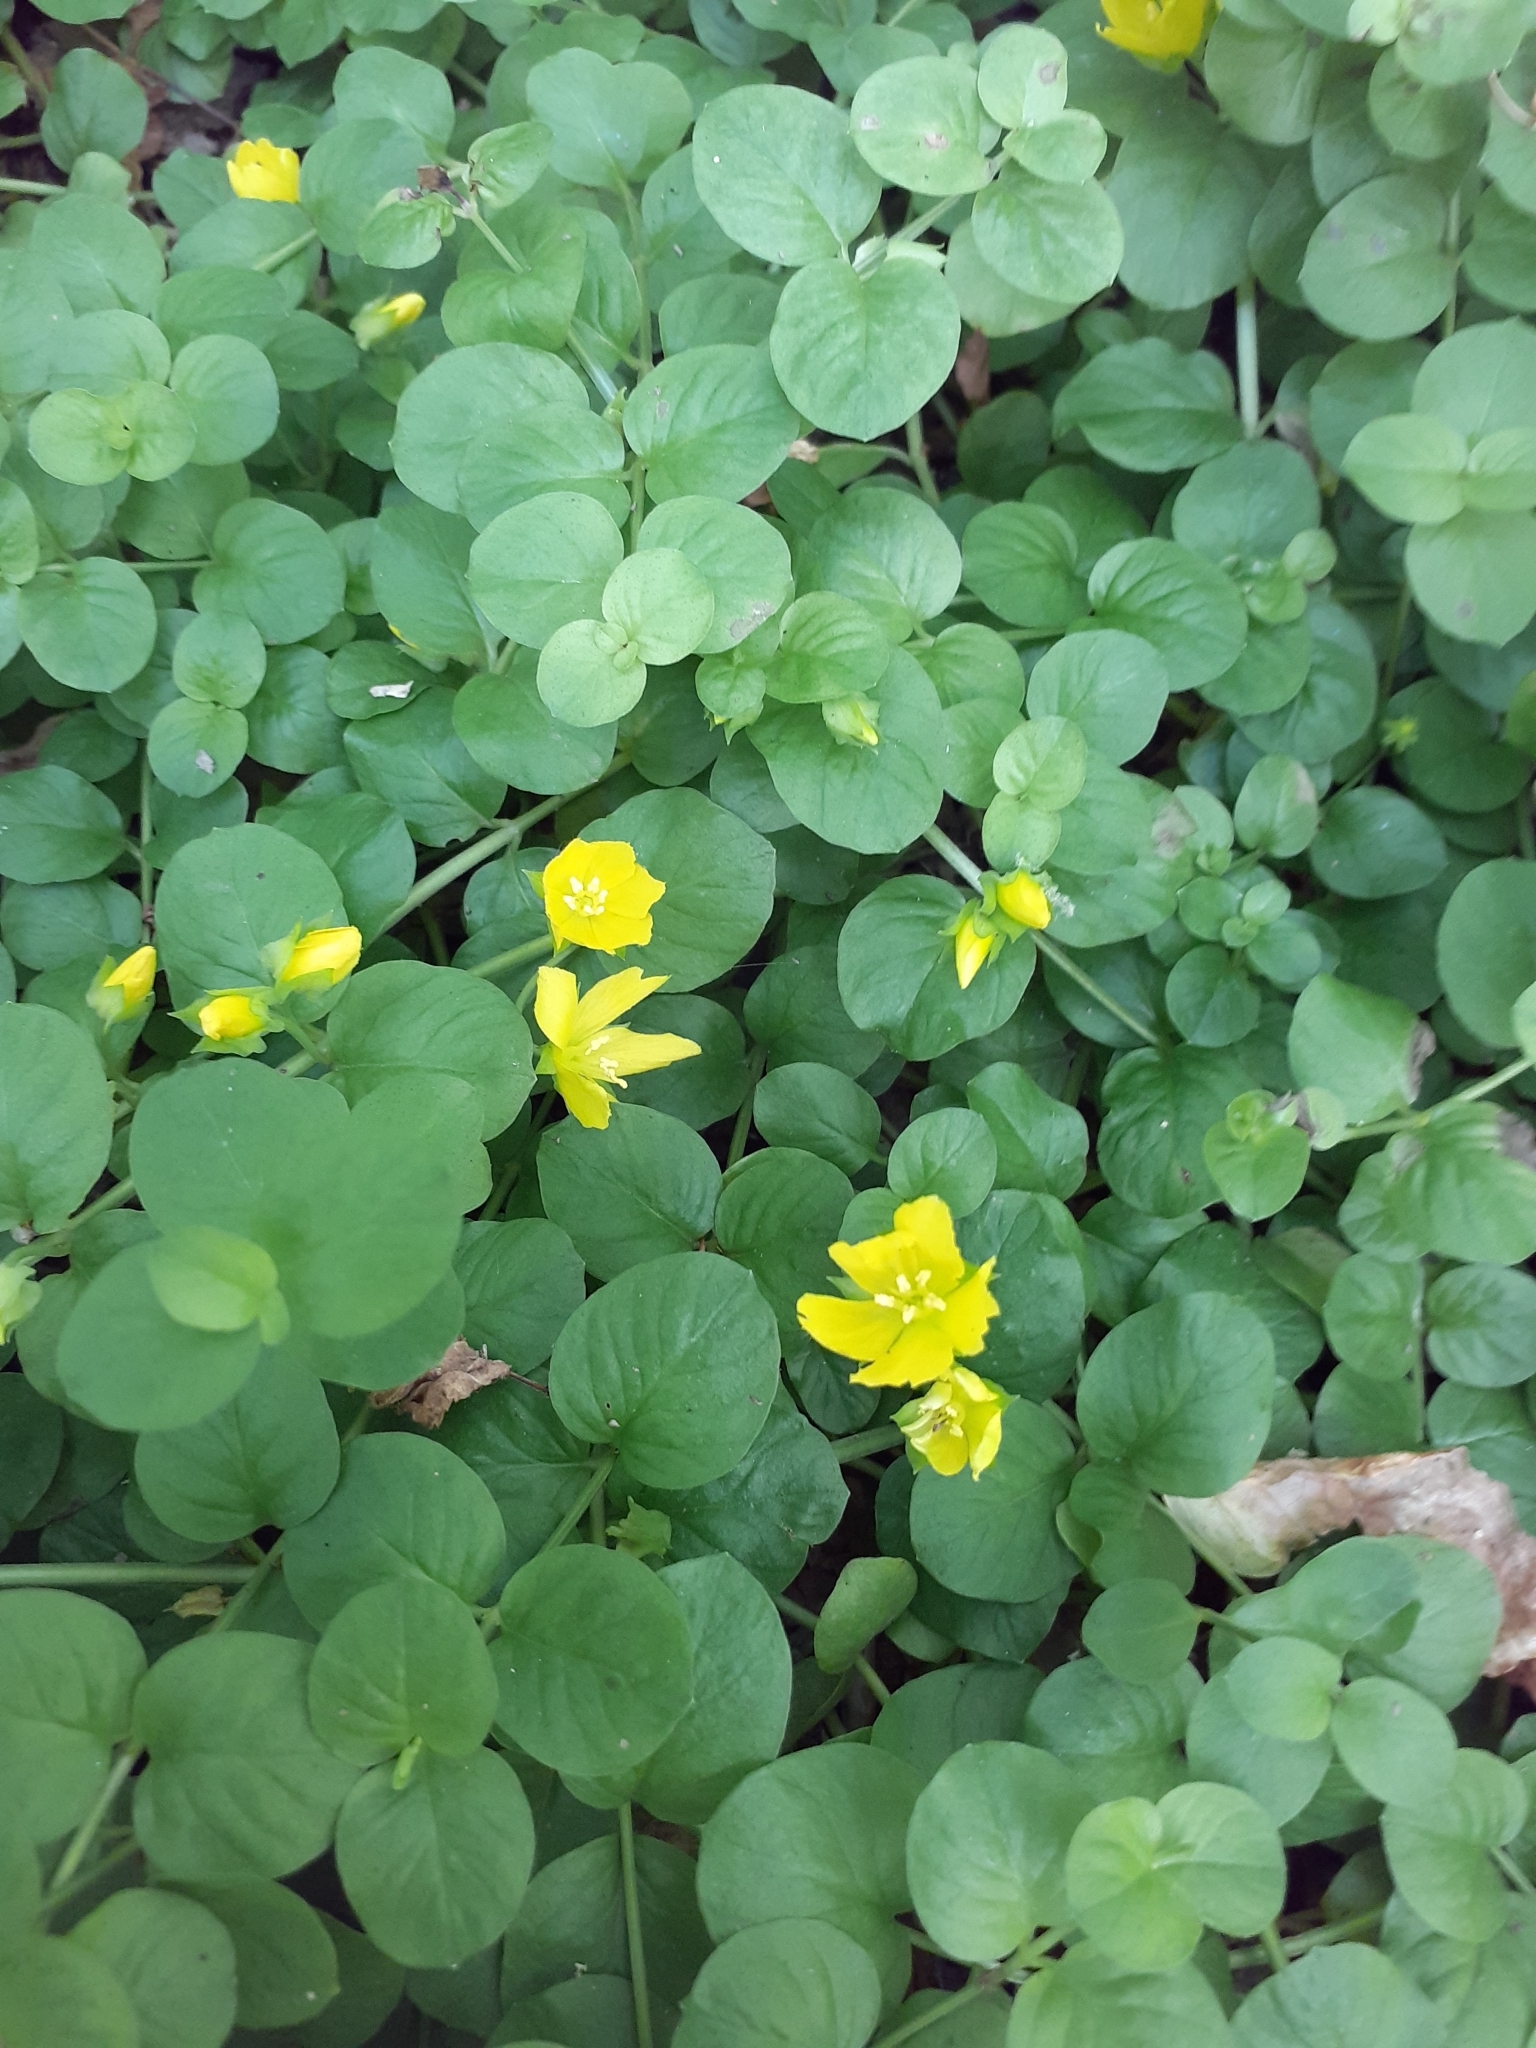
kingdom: Plantae
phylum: Tracheophyta
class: Magnoliopsida
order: Ericales
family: Primulaceae
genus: Lysimachia
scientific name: Lysimachia nummularia
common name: Moneywort
